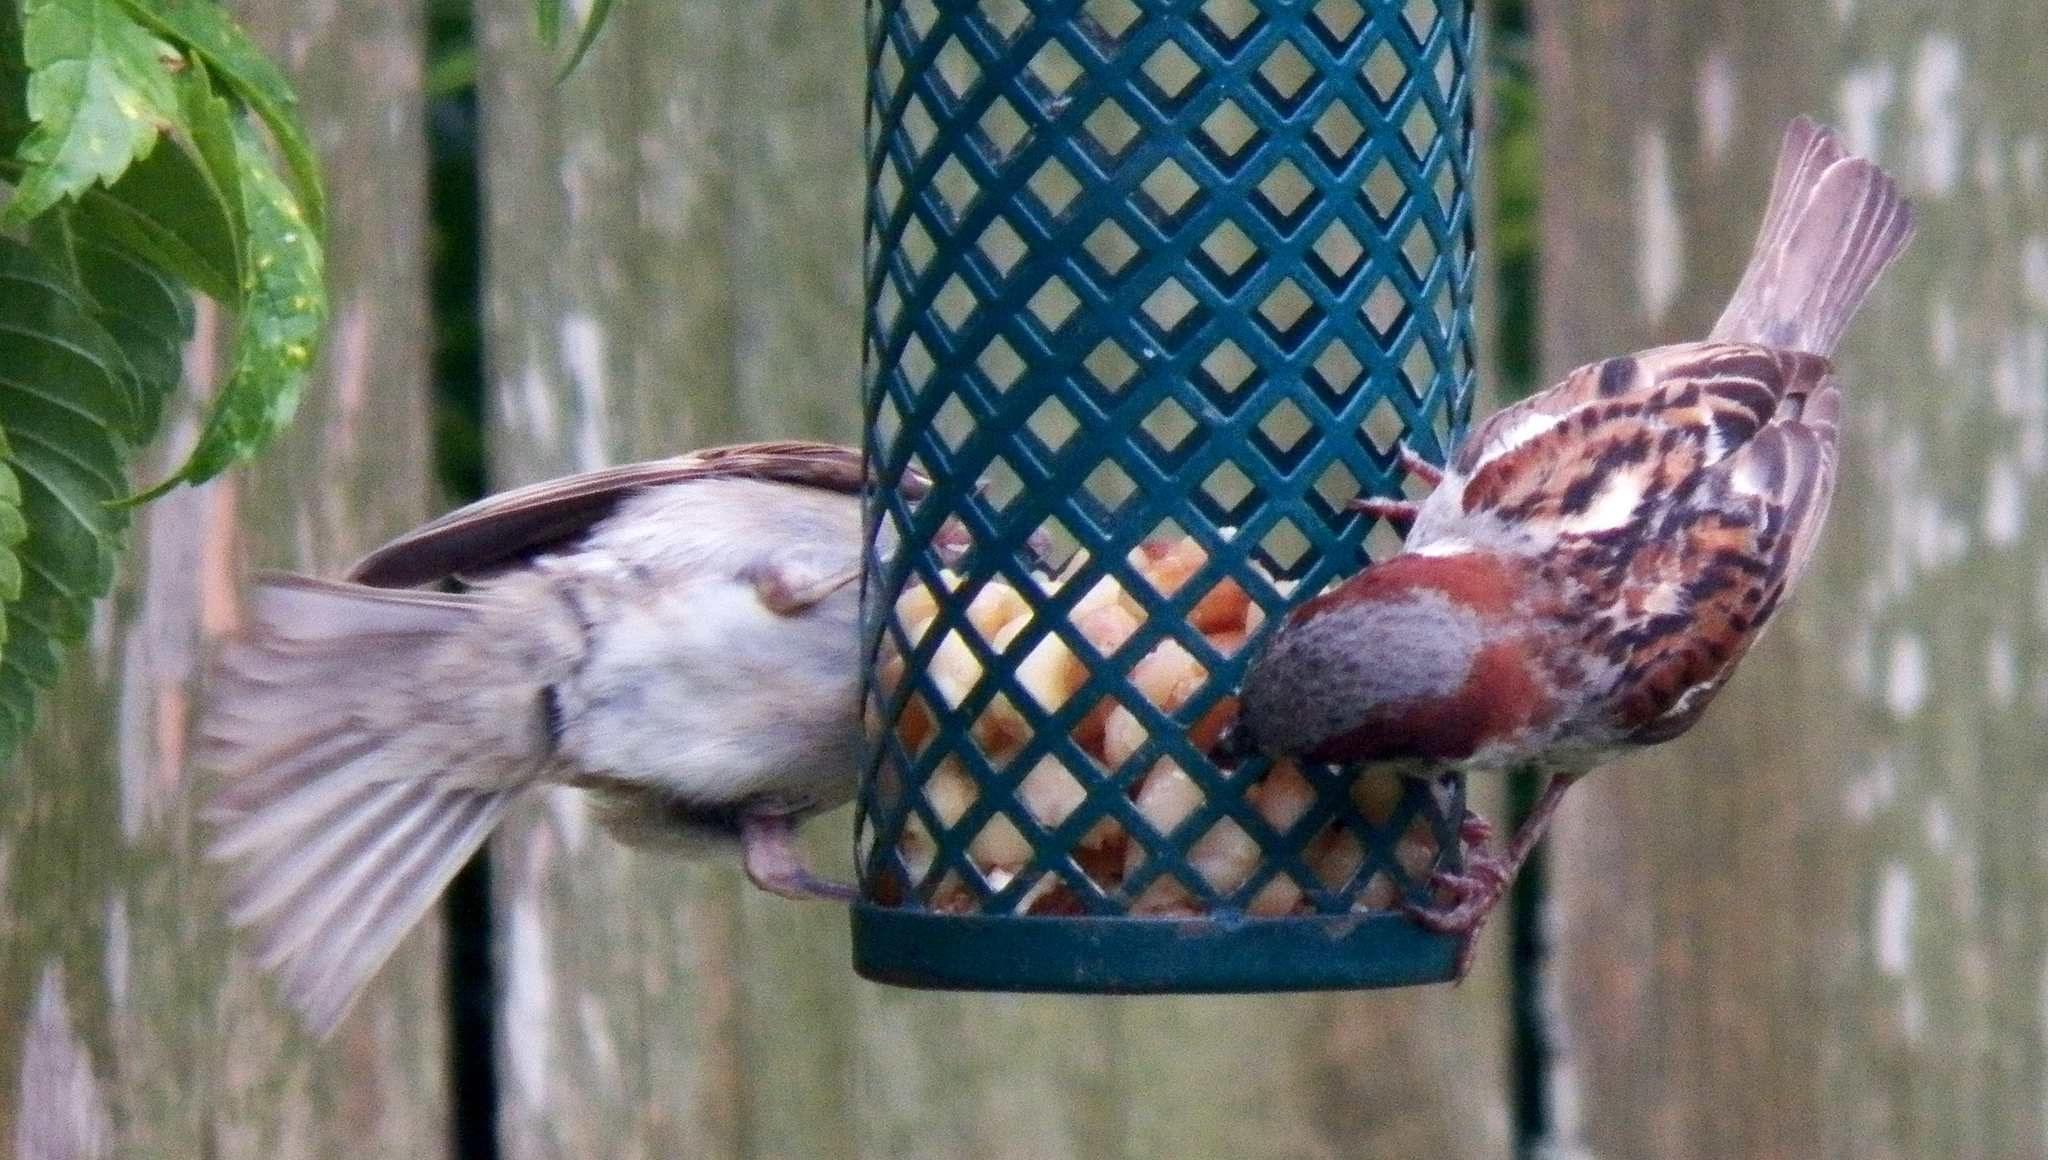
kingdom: Animalia
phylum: Chordata
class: Aves
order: Passeriformes
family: Passeridae
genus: Passer
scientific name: Passer domesticus
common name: House sparrow
